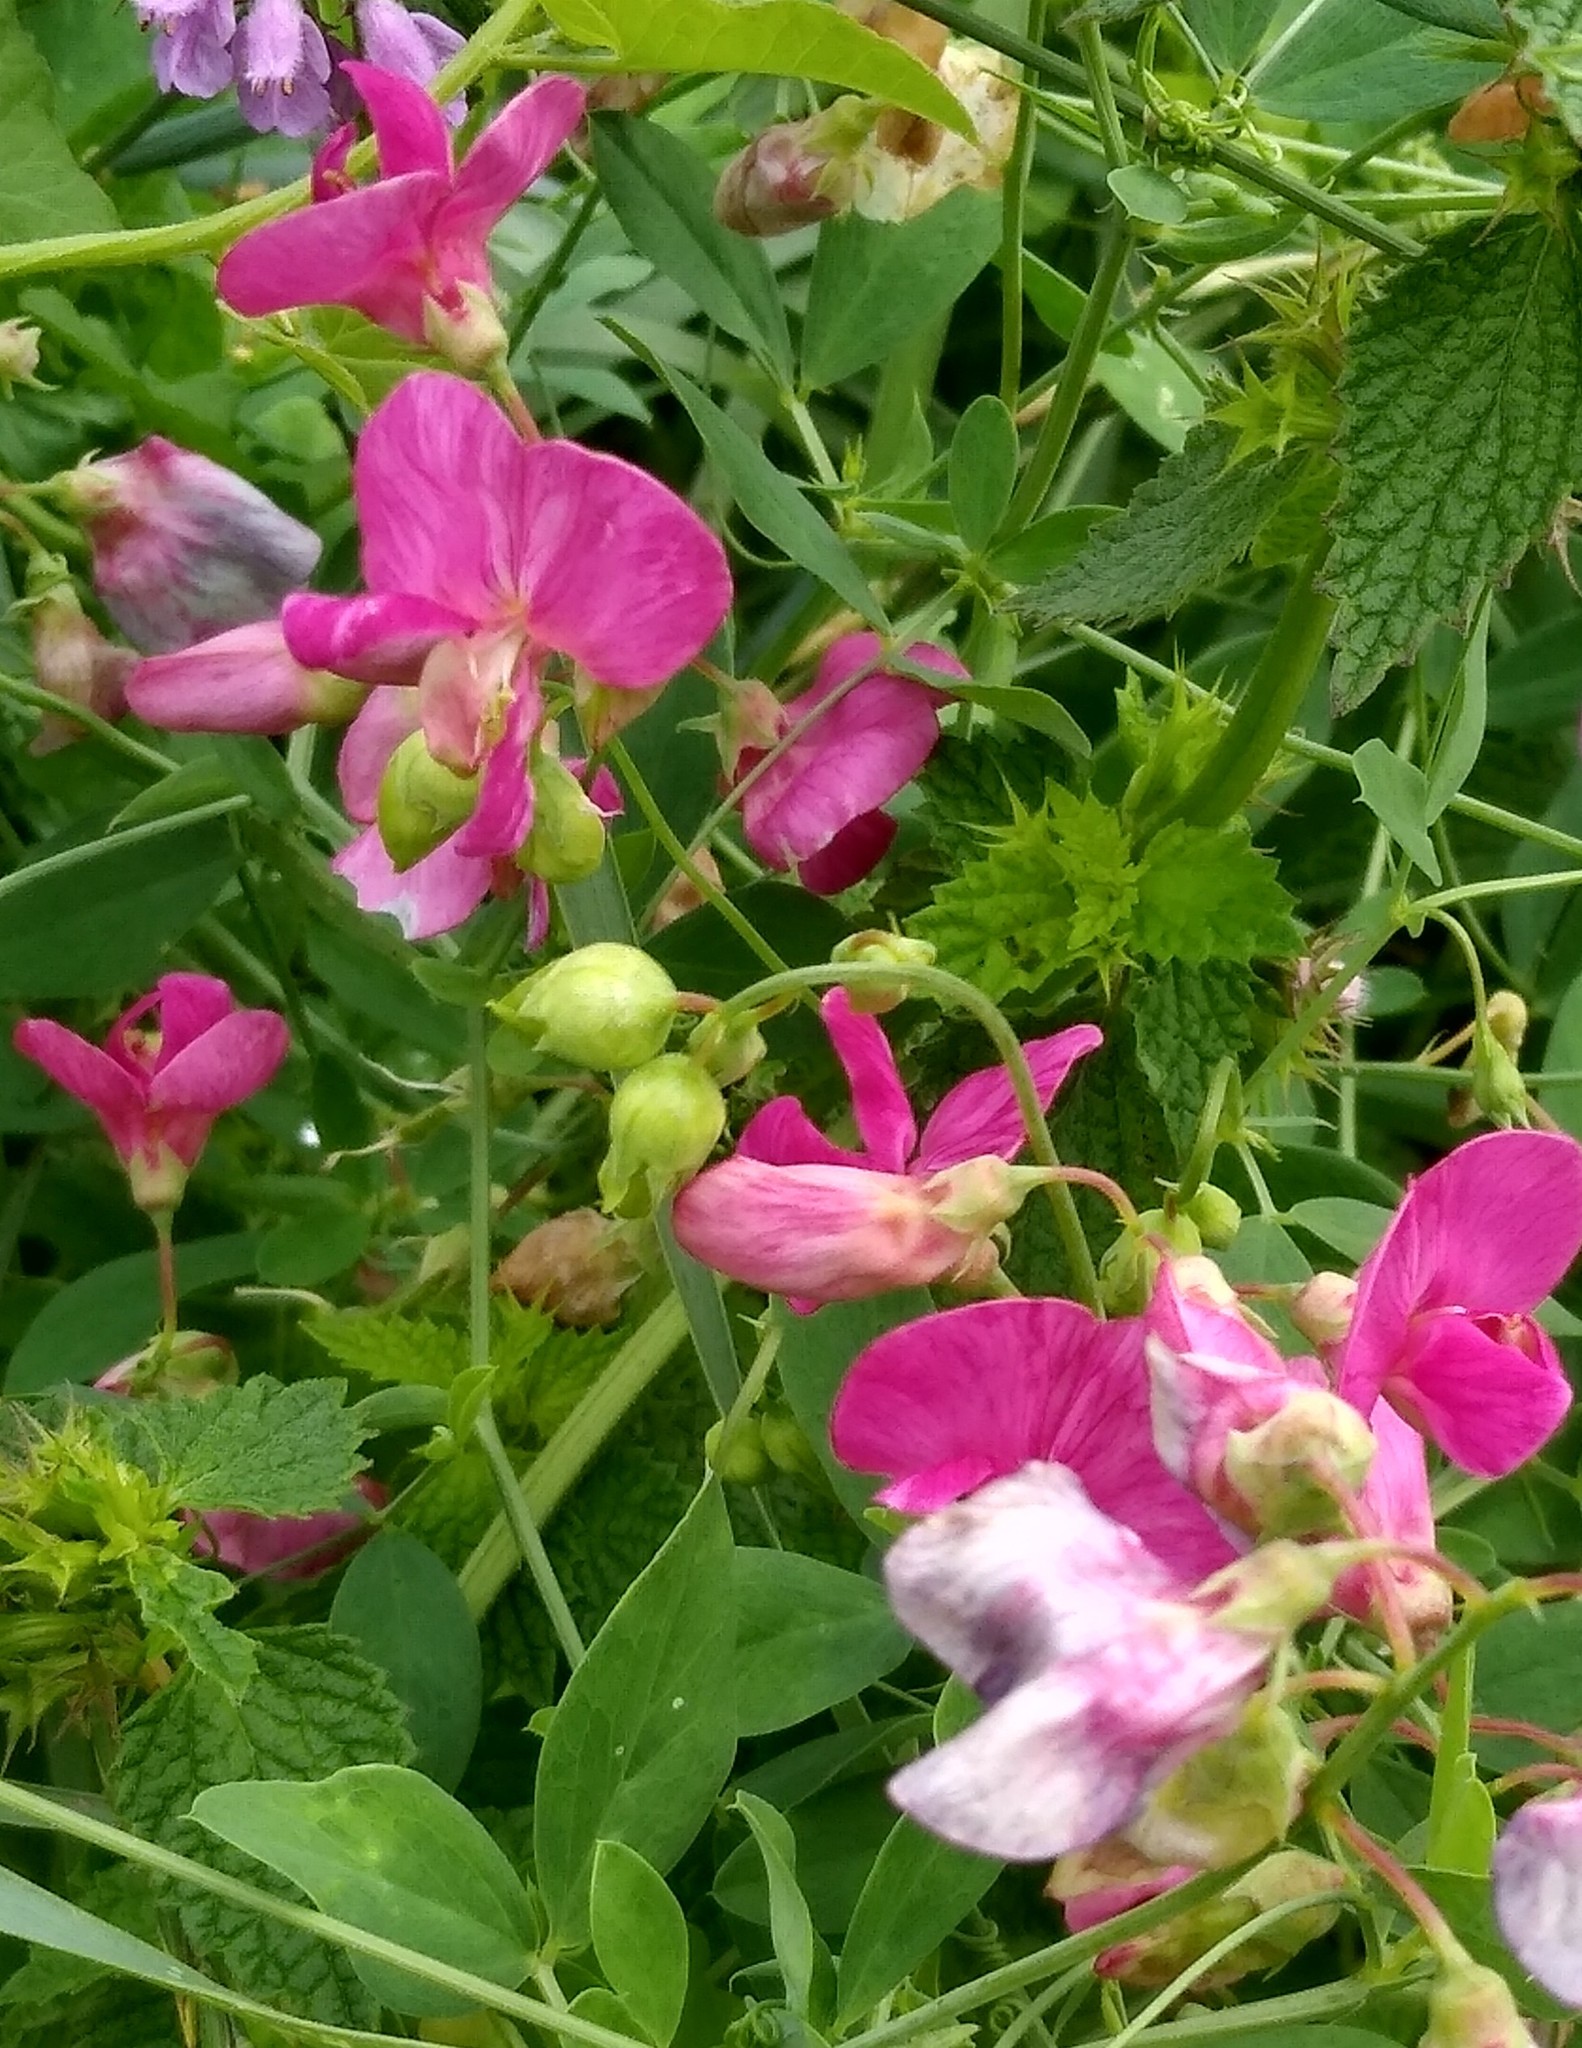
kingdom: Plantae
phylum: Tracheophyta
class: Magnoliopsida
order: Fabales
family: Fabaceae
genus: Lathyrus
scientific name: Lathyrus tuberosus
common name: Tuberous pea
